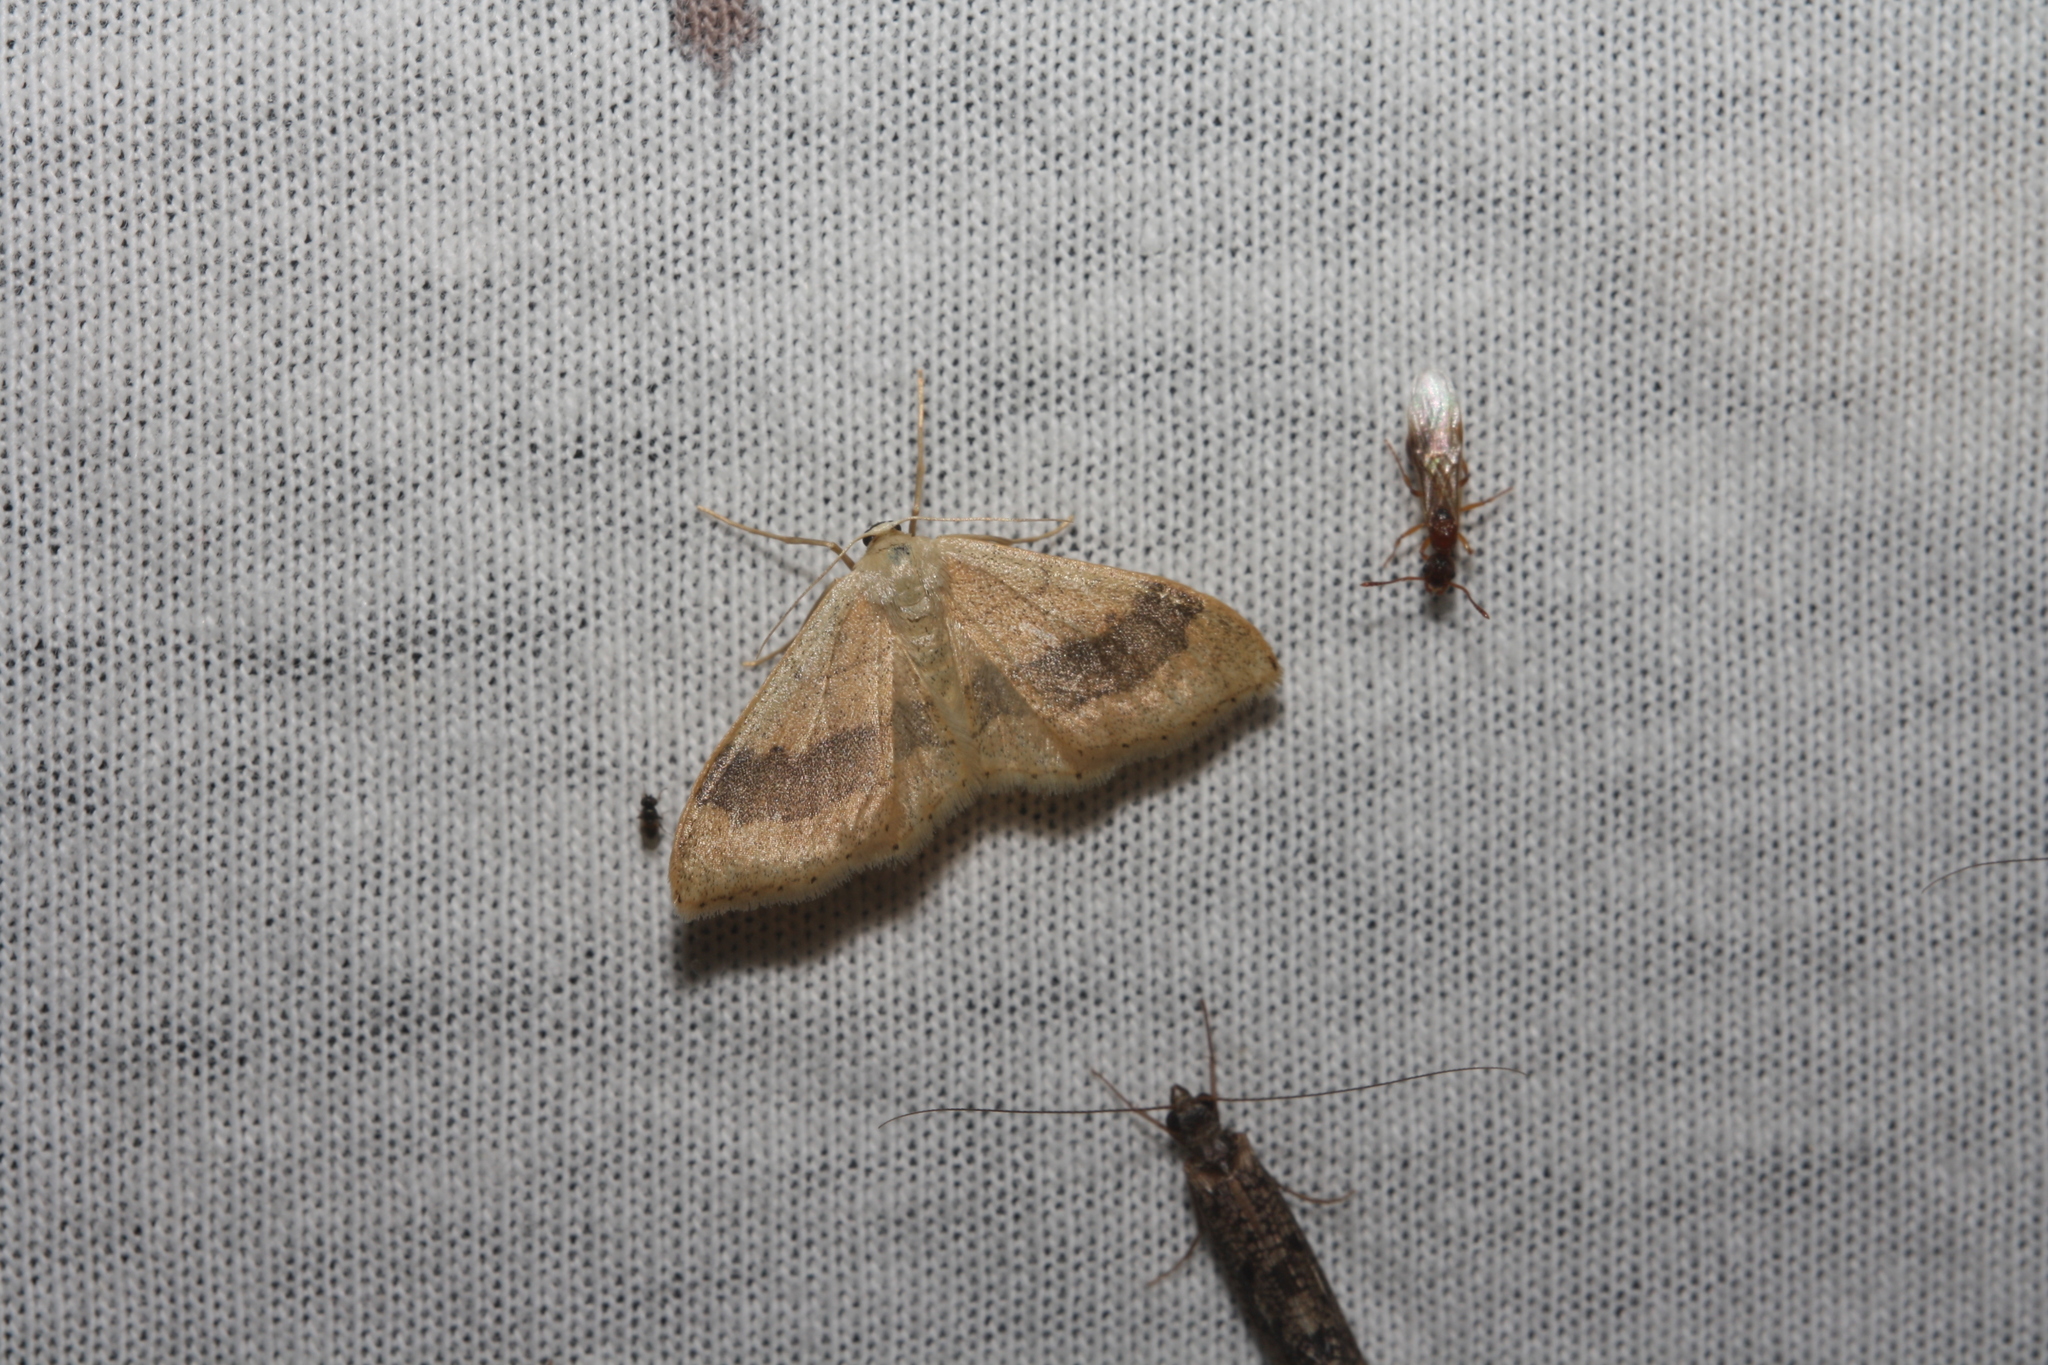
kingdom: Animalia
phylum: Arthropoda
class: Insecta
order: Lepidoptera
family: Geometridae
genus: Idaea
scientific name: Idaea aversata
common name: Riband wave
